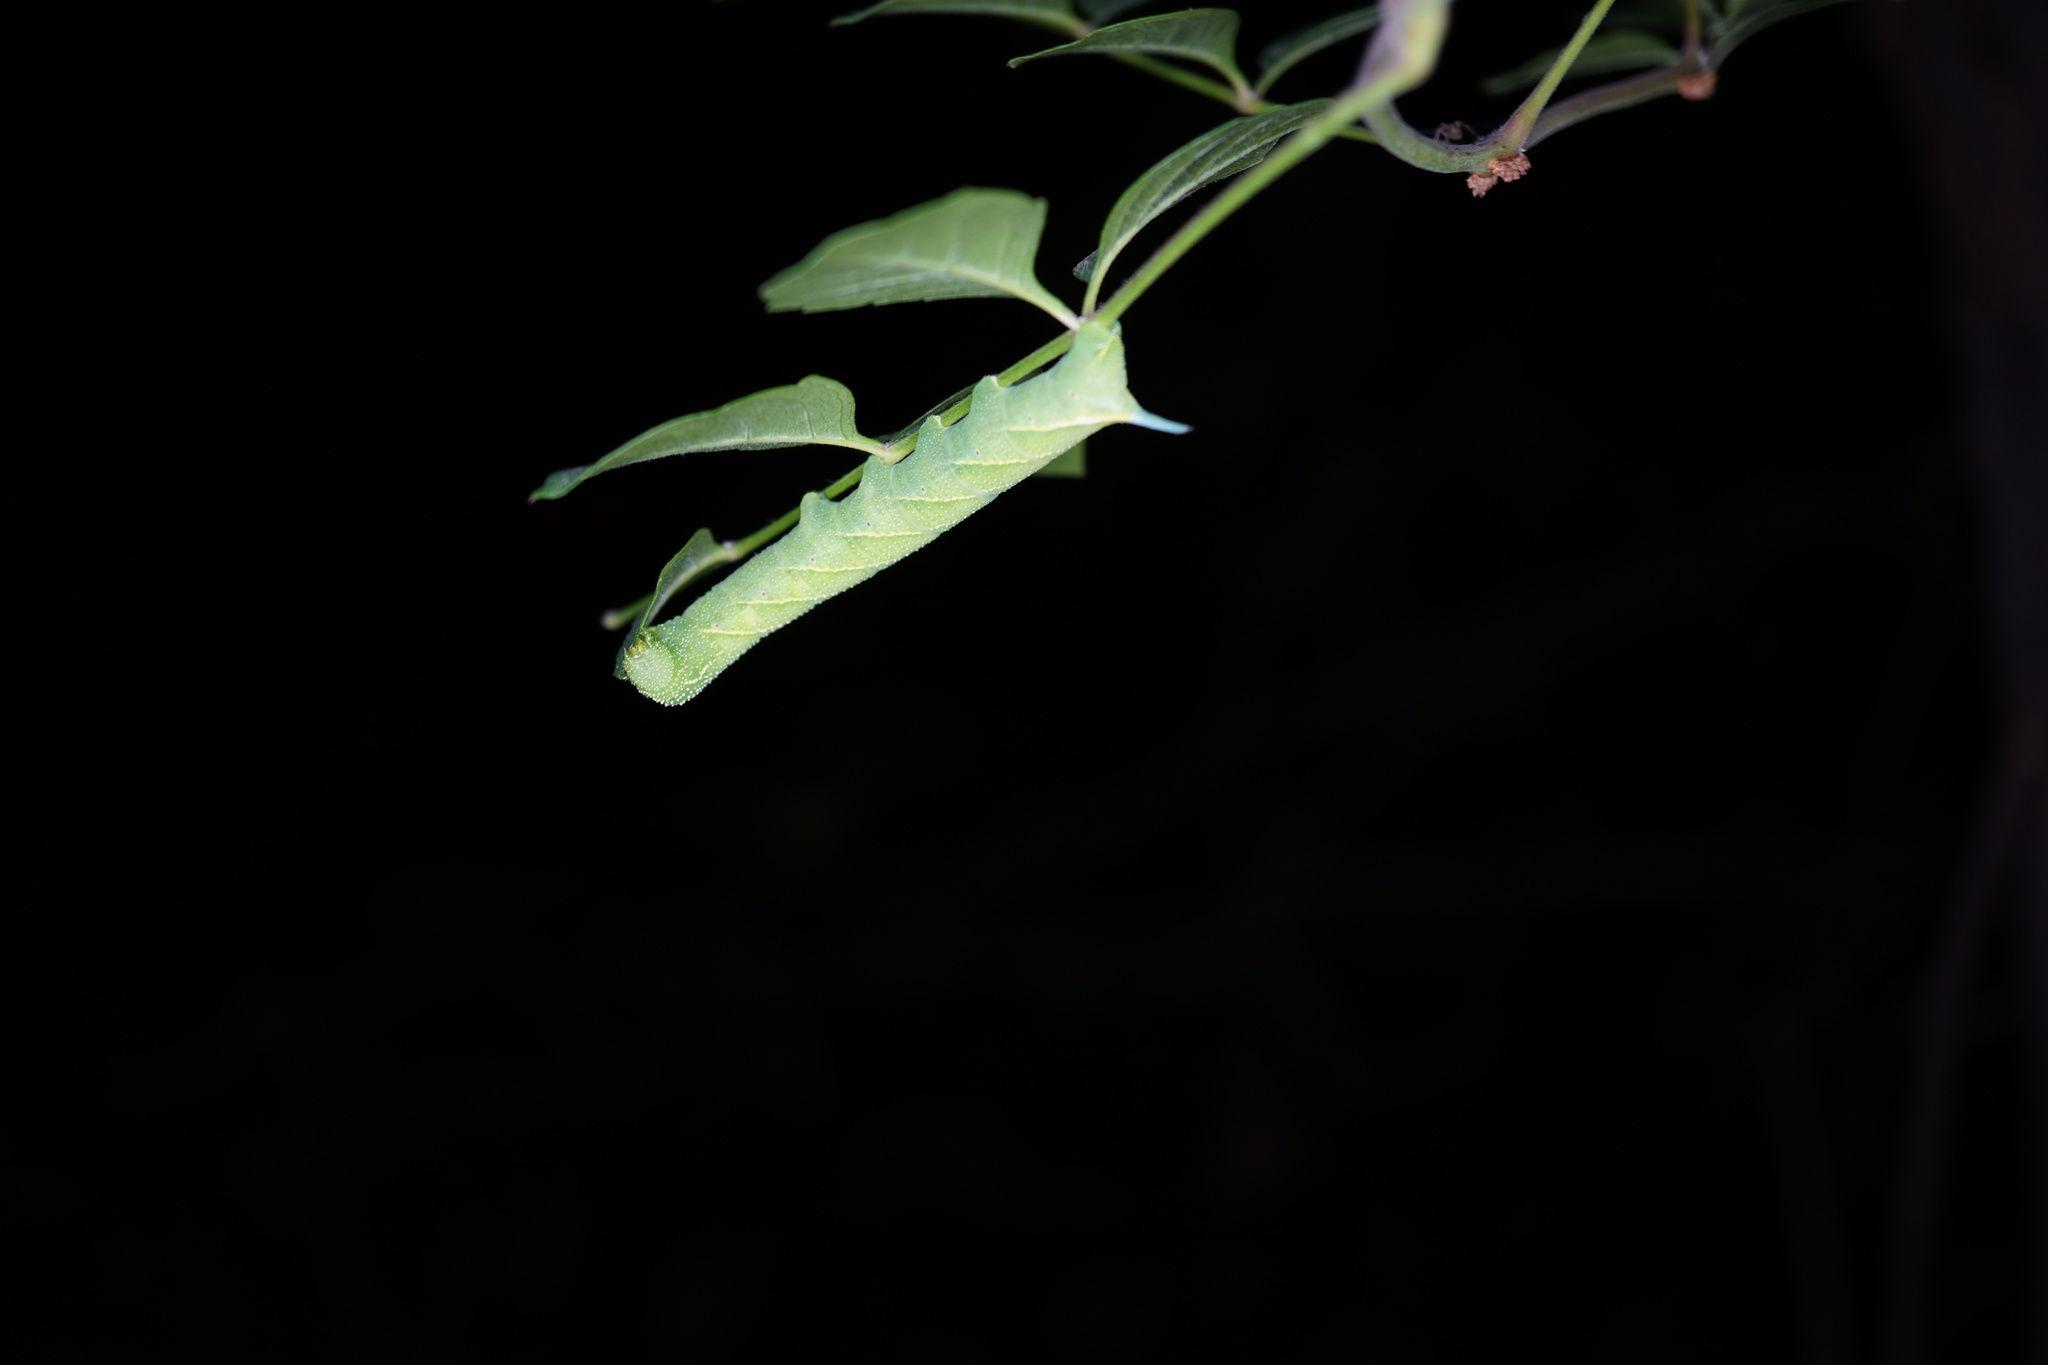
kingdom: Animalia
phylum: Arthropoda
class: Insecta
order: Lepidoptera
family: Sphingidae
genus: Paratrea
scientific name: Paratrea plebeja
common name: Plebian sphinx
